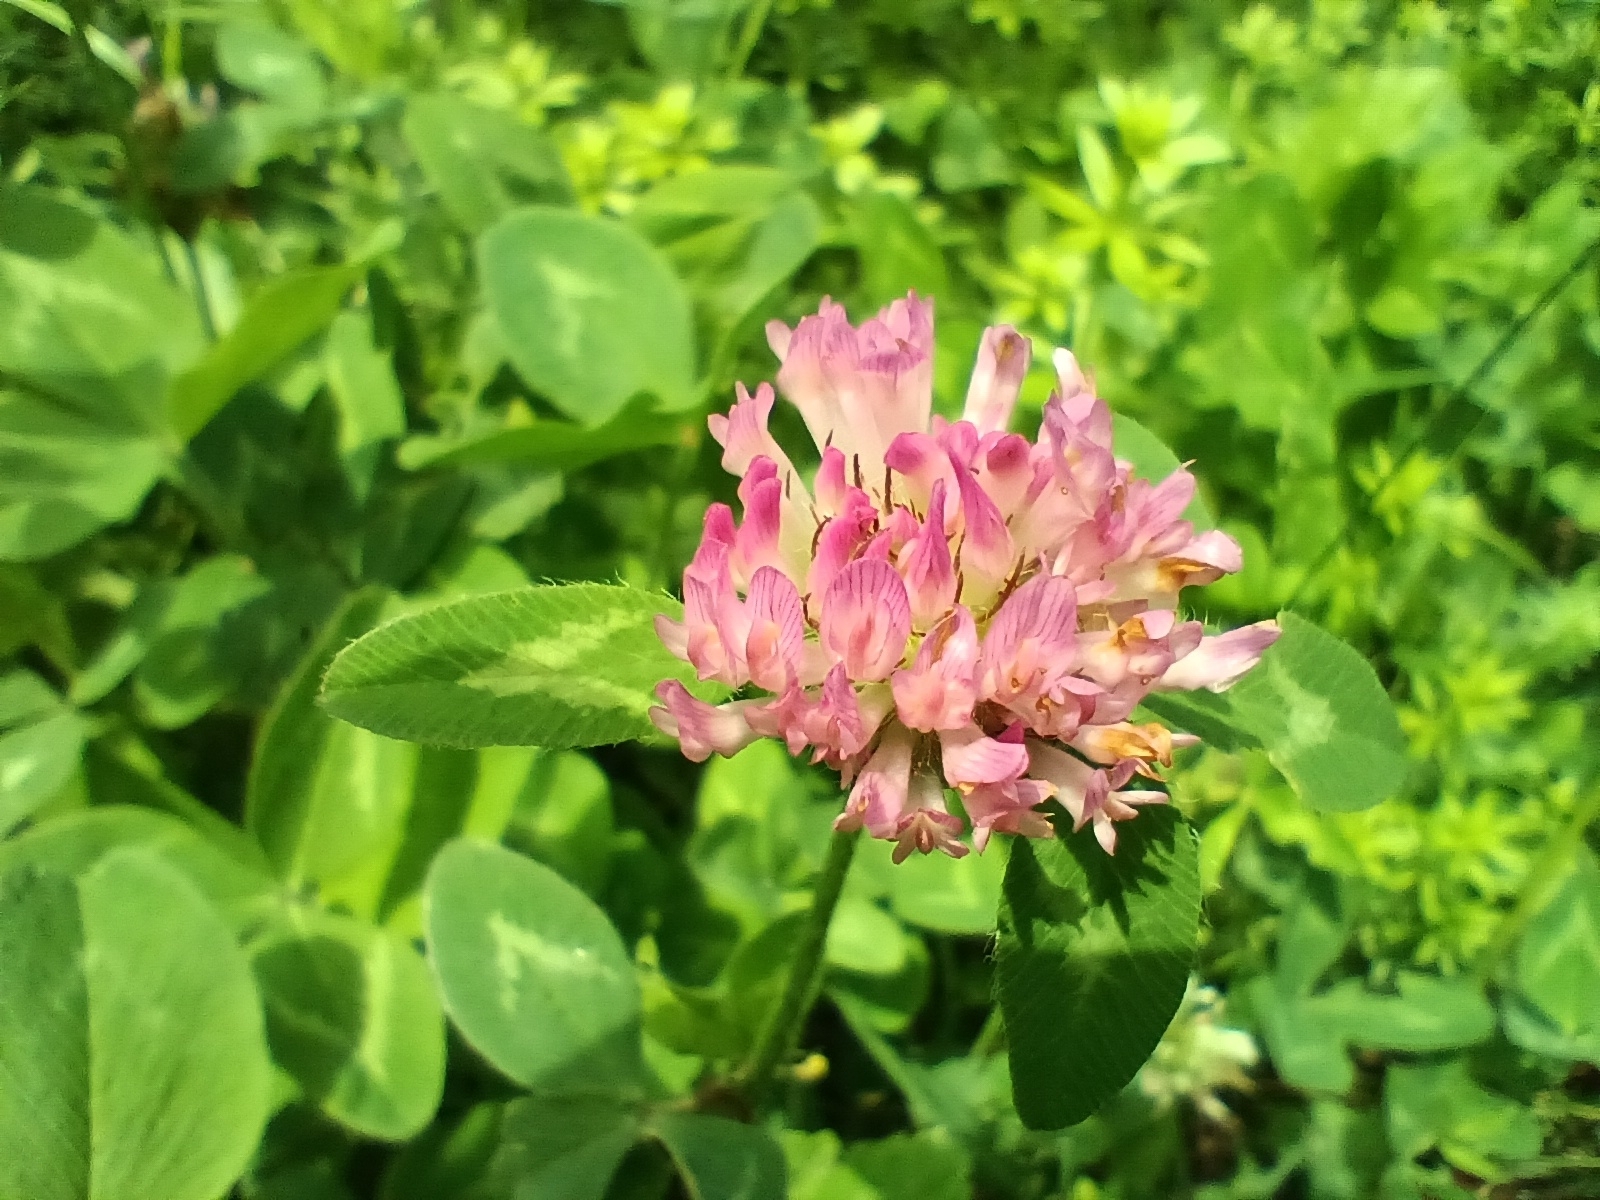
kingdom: Plantae
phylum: Tracheophyta
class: Magnoliopsida
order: Fabales
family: Fabaceae
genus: Trifolium
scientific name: Trifolium pratense
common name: Red clover
